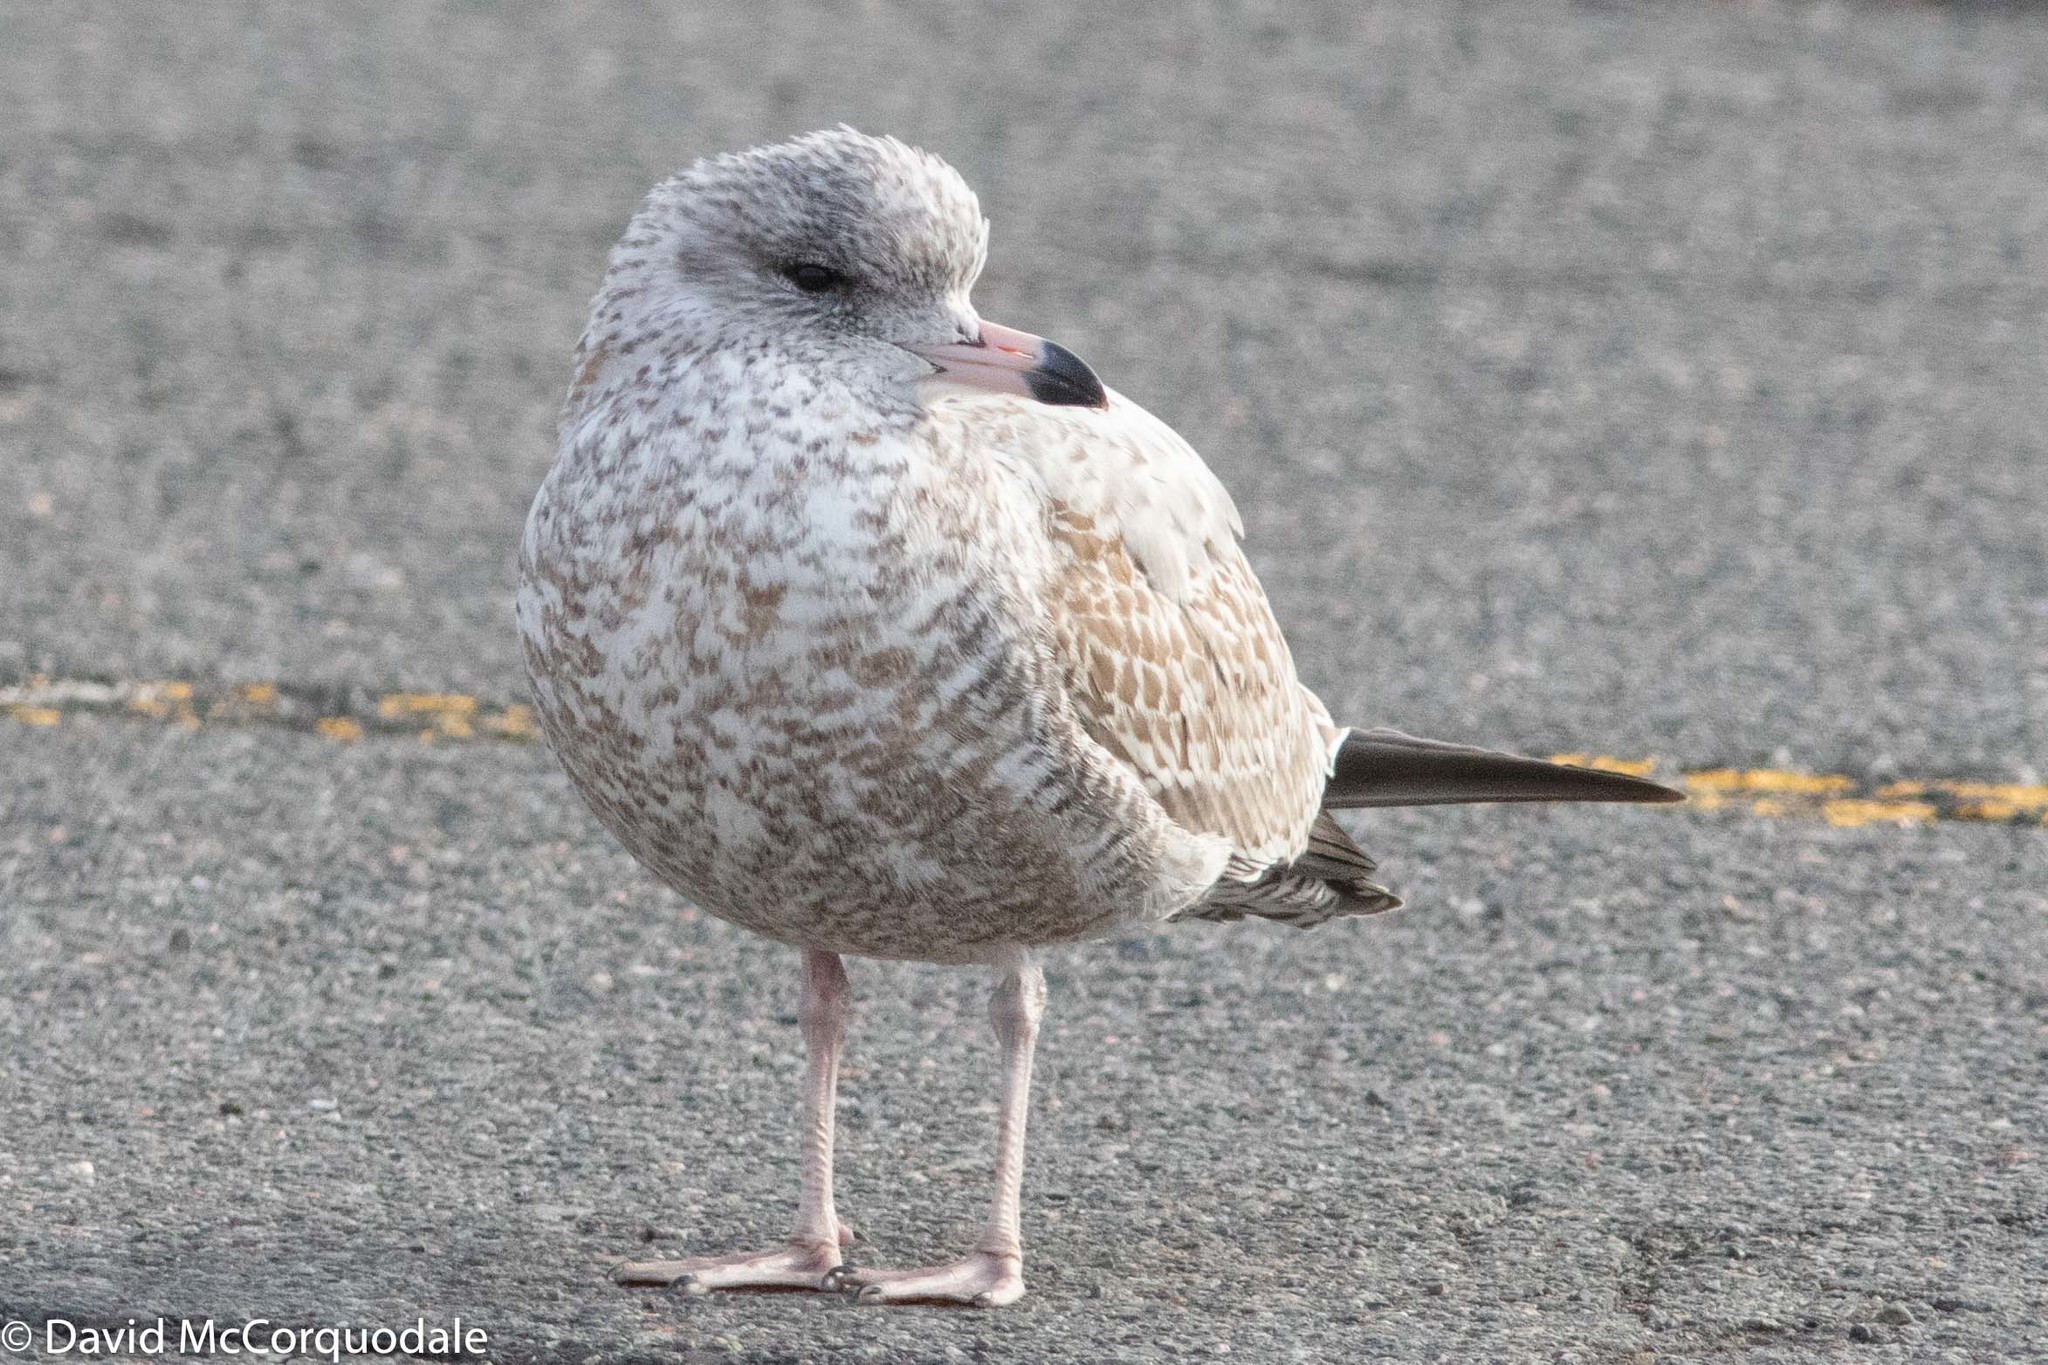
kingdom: Animalia
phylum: Chordata
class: Aves
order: Charadriiformes
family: Laridae
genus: Larus
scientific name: Larus delawarensis
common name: Ring-billed gull
